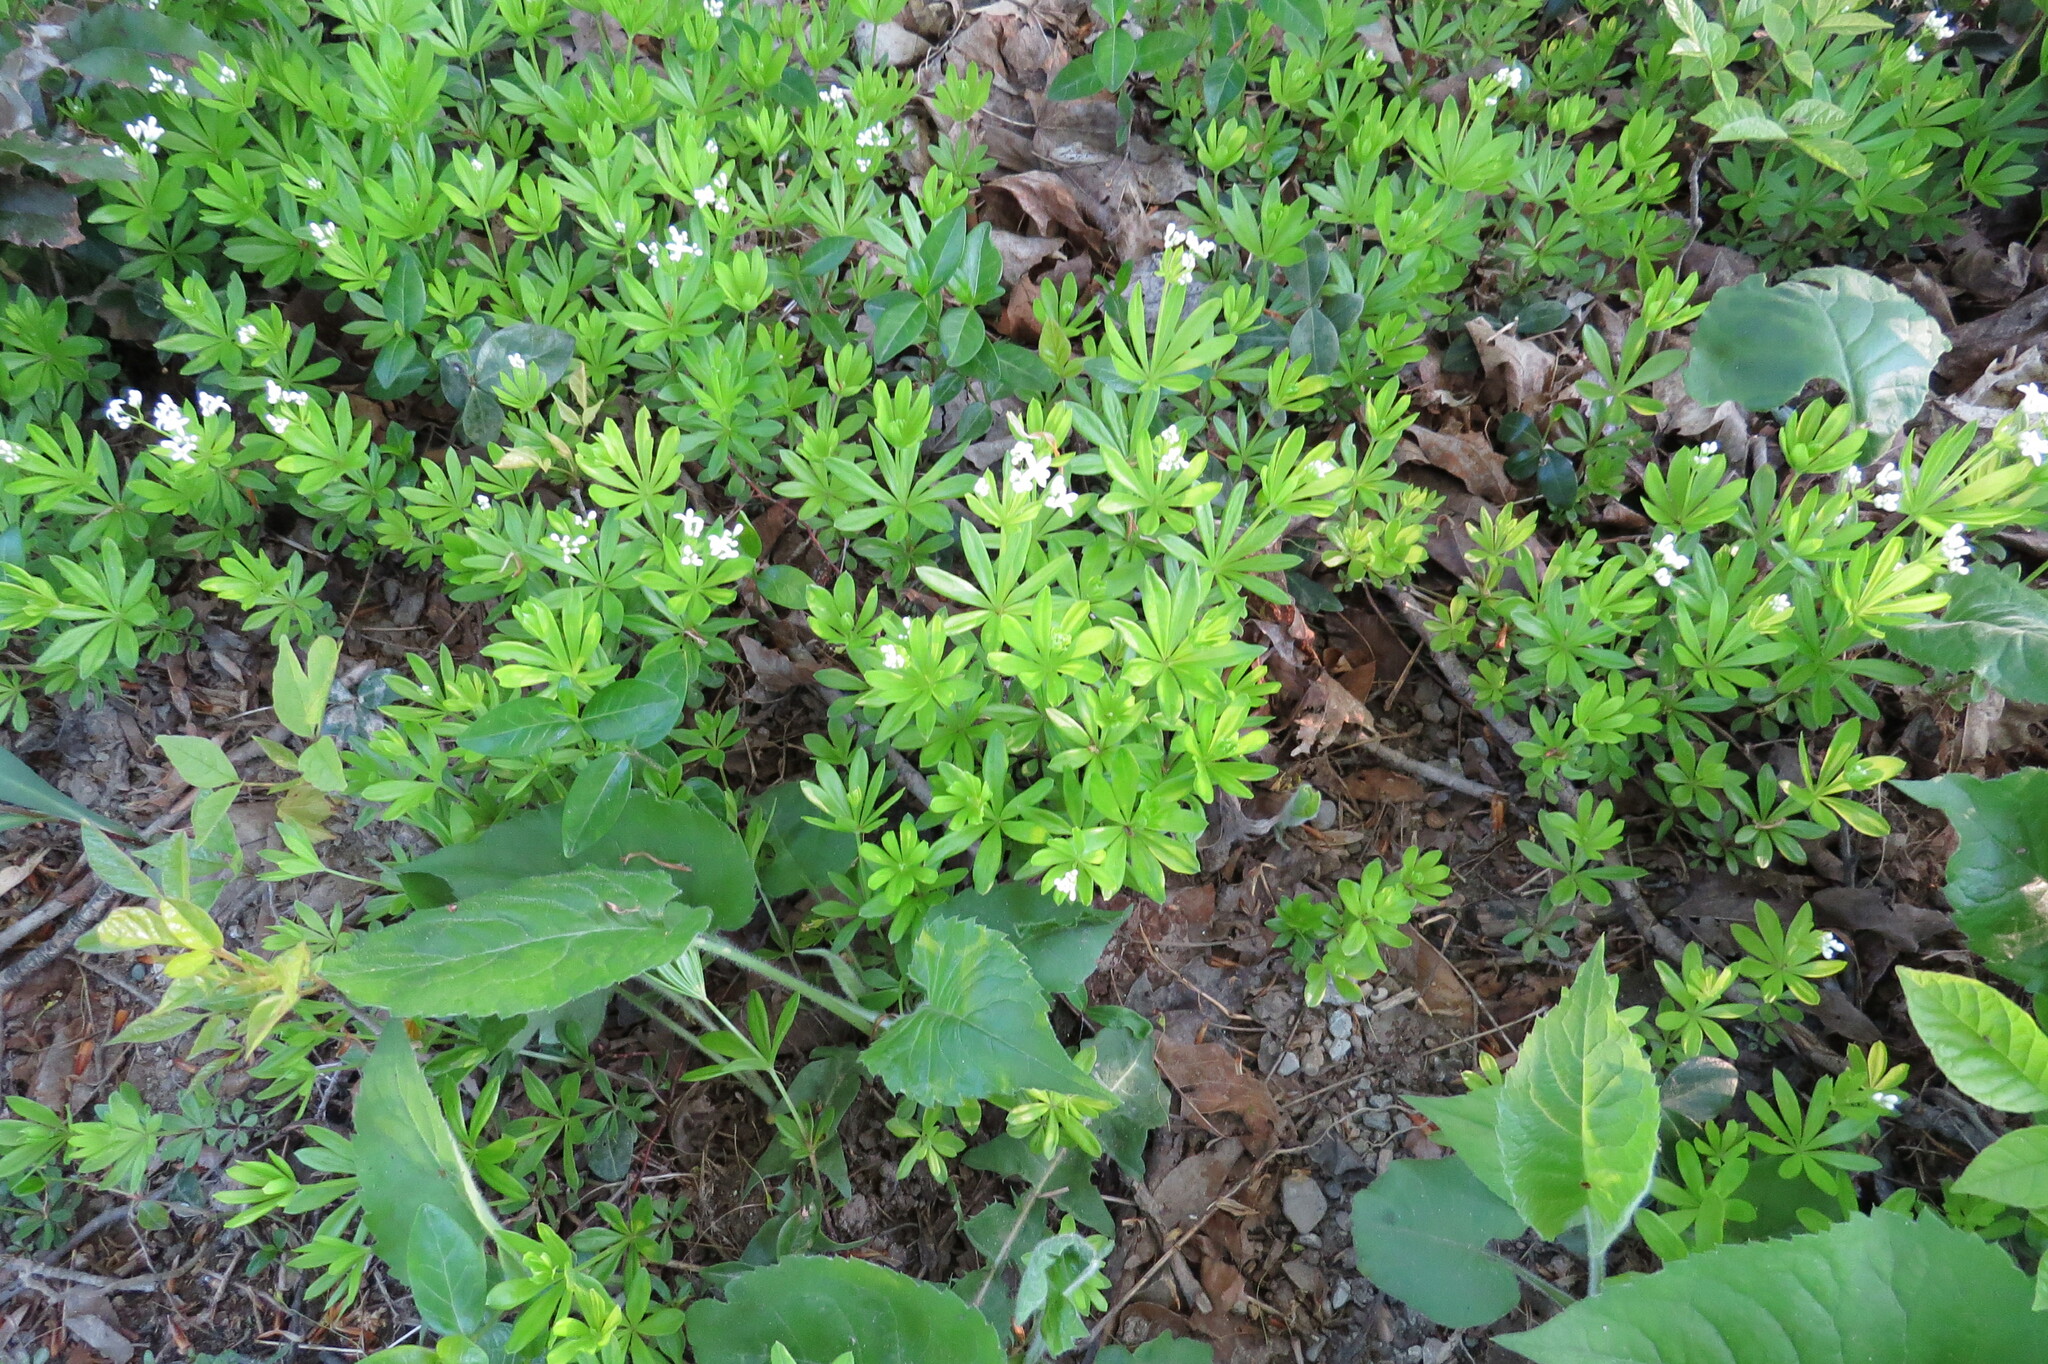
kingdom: Plantae
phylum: Tracheophyta
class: Magnoliopsida
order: Gentianales
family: Rubiaceae
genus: Galium
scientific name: Galium odoratum
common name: Sweet woodruff
